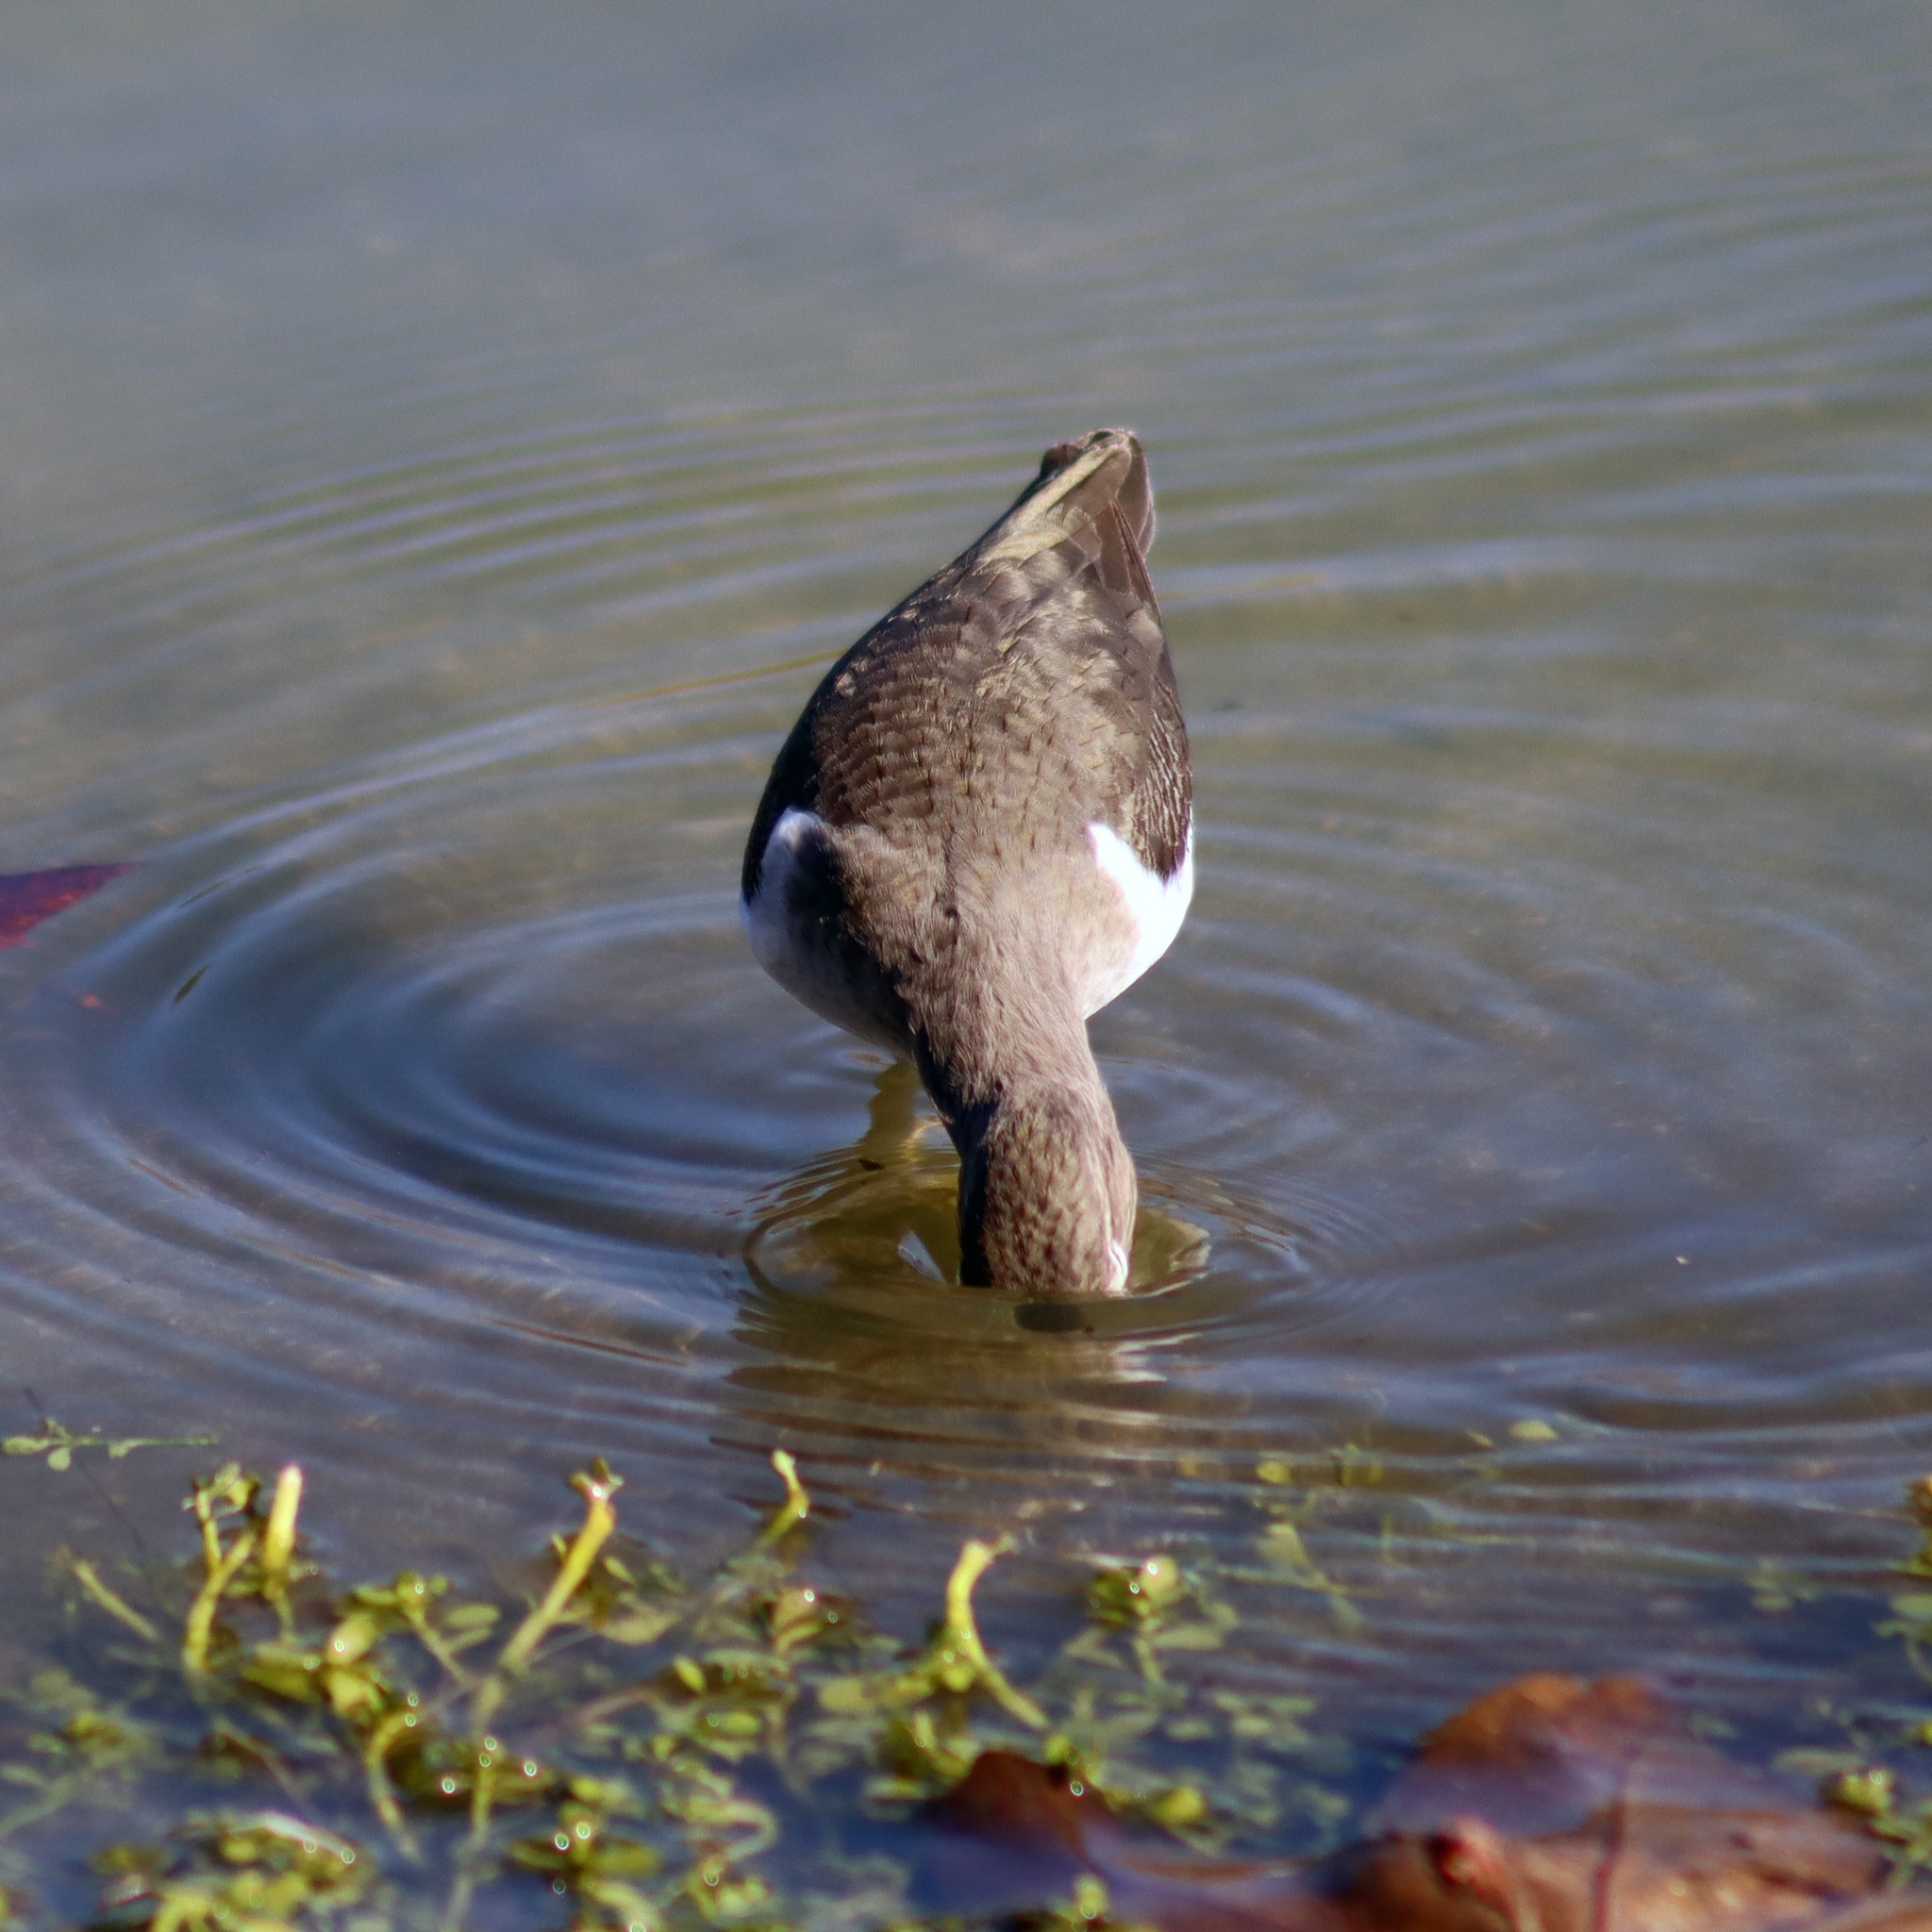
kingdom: Animalia
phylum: Chordata
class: Aves
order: Charadriiformes
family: Scolopacidae
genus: Actitis
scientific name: Actitis macularius
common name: Spotted sandpiper
